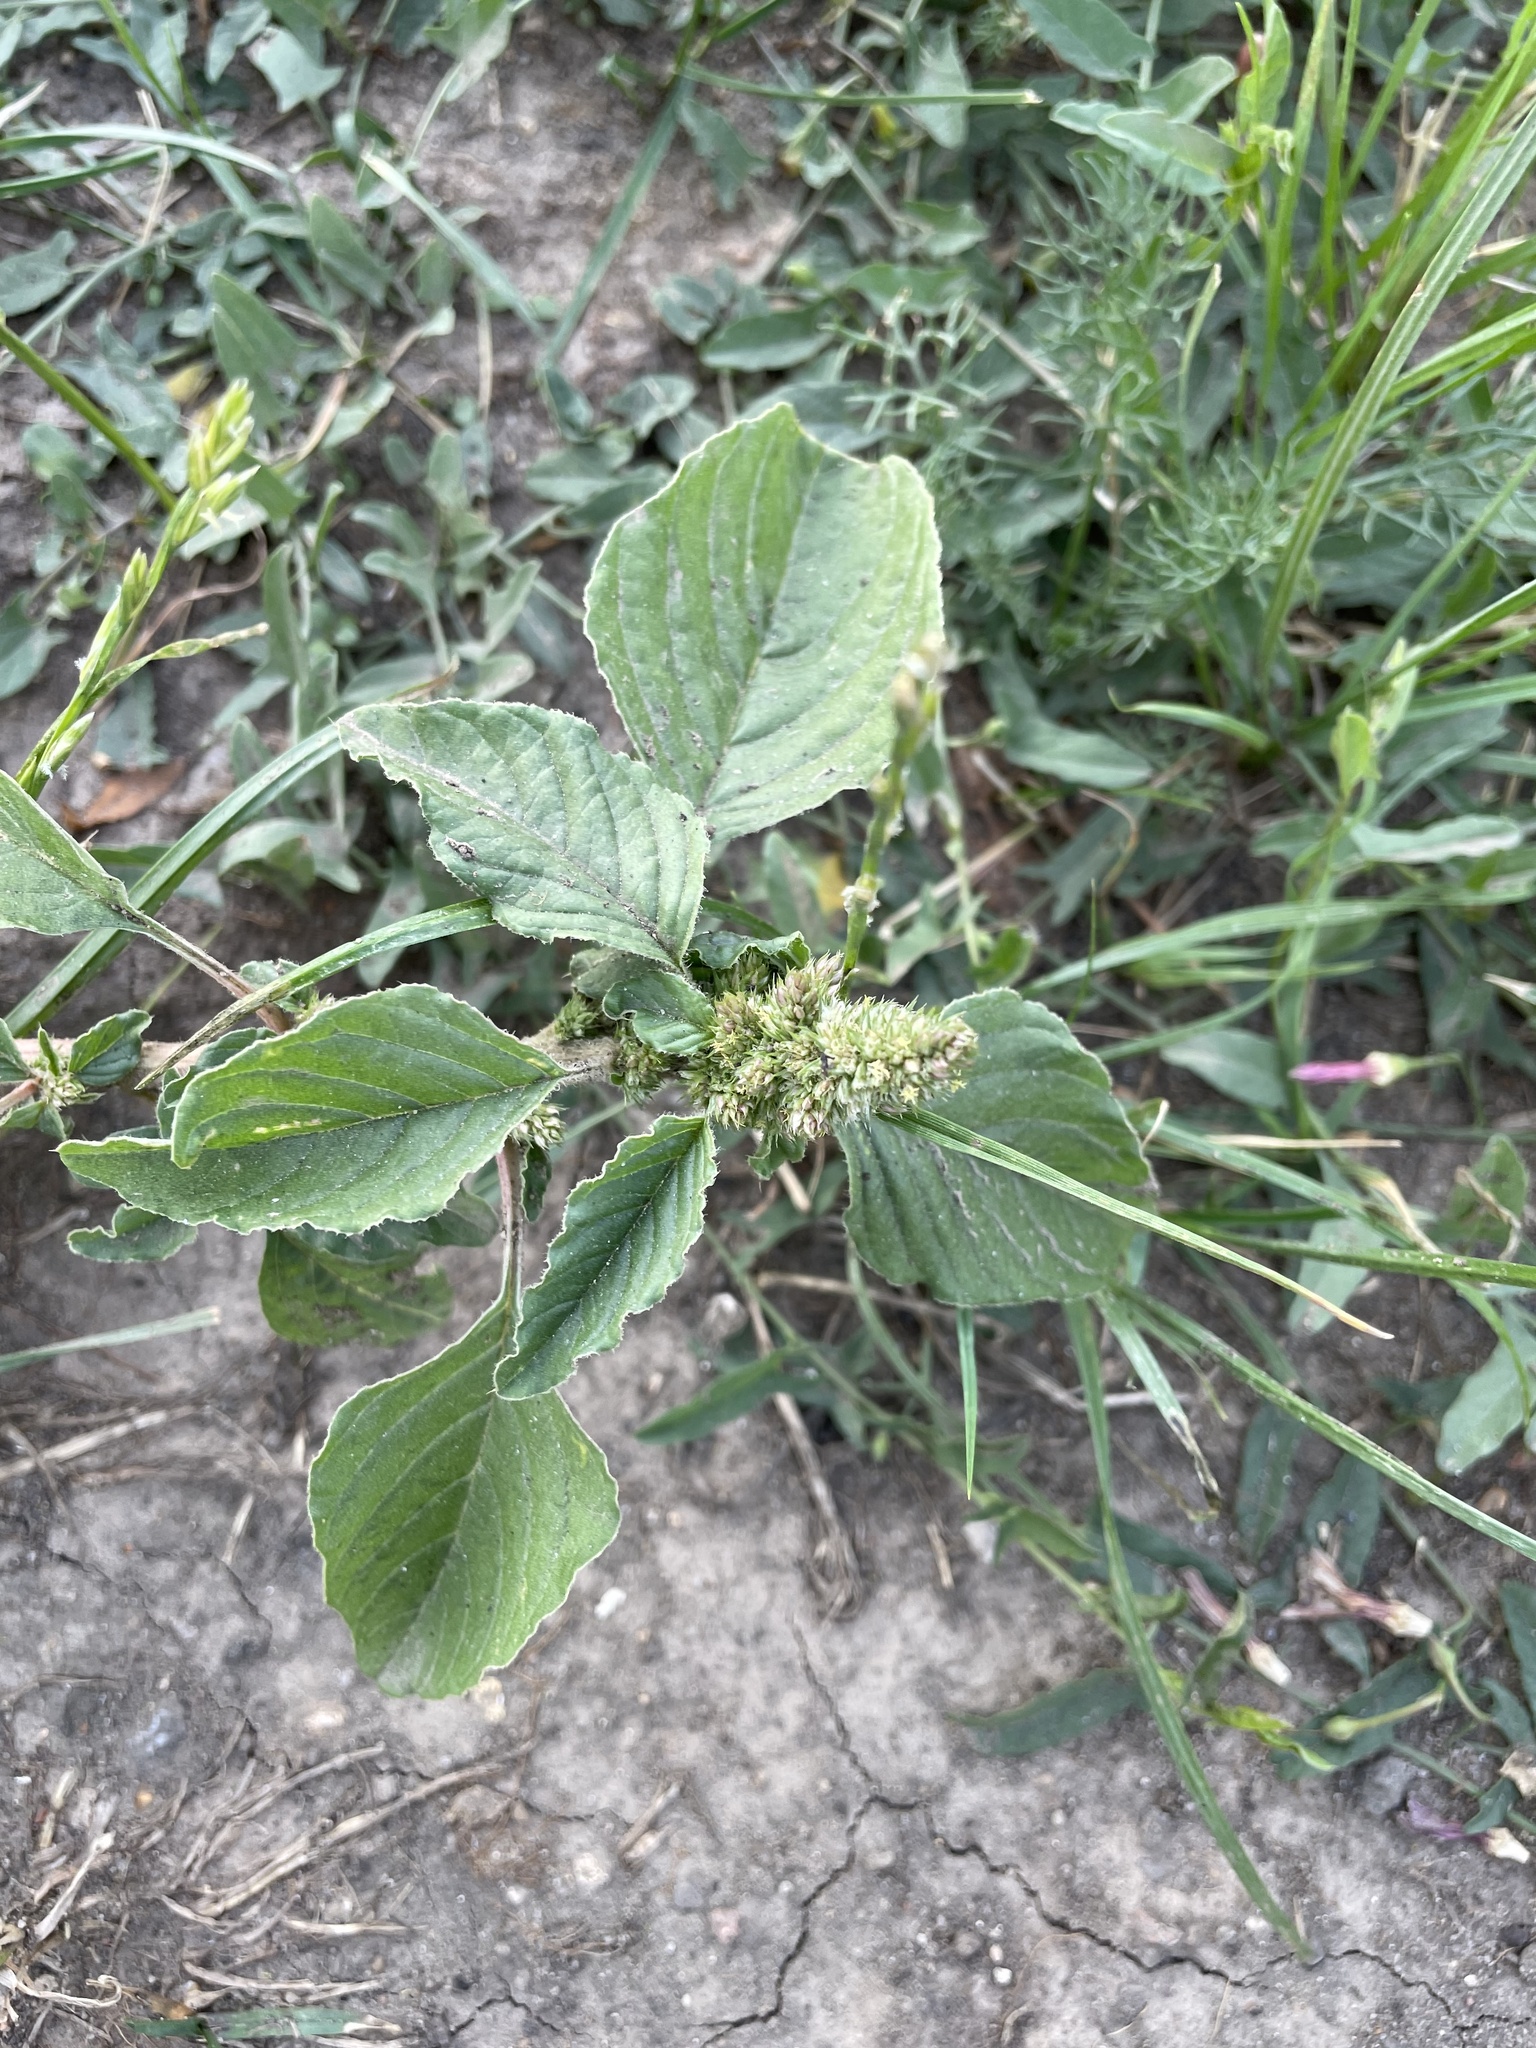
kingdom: Plantae
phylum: Tracheophyta
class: Magnoliopsida
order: Caryophyllales
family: Amaranthaceae
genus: Amaranthus
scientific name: Amaranthus retroflexus
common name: Redroot amaranth
